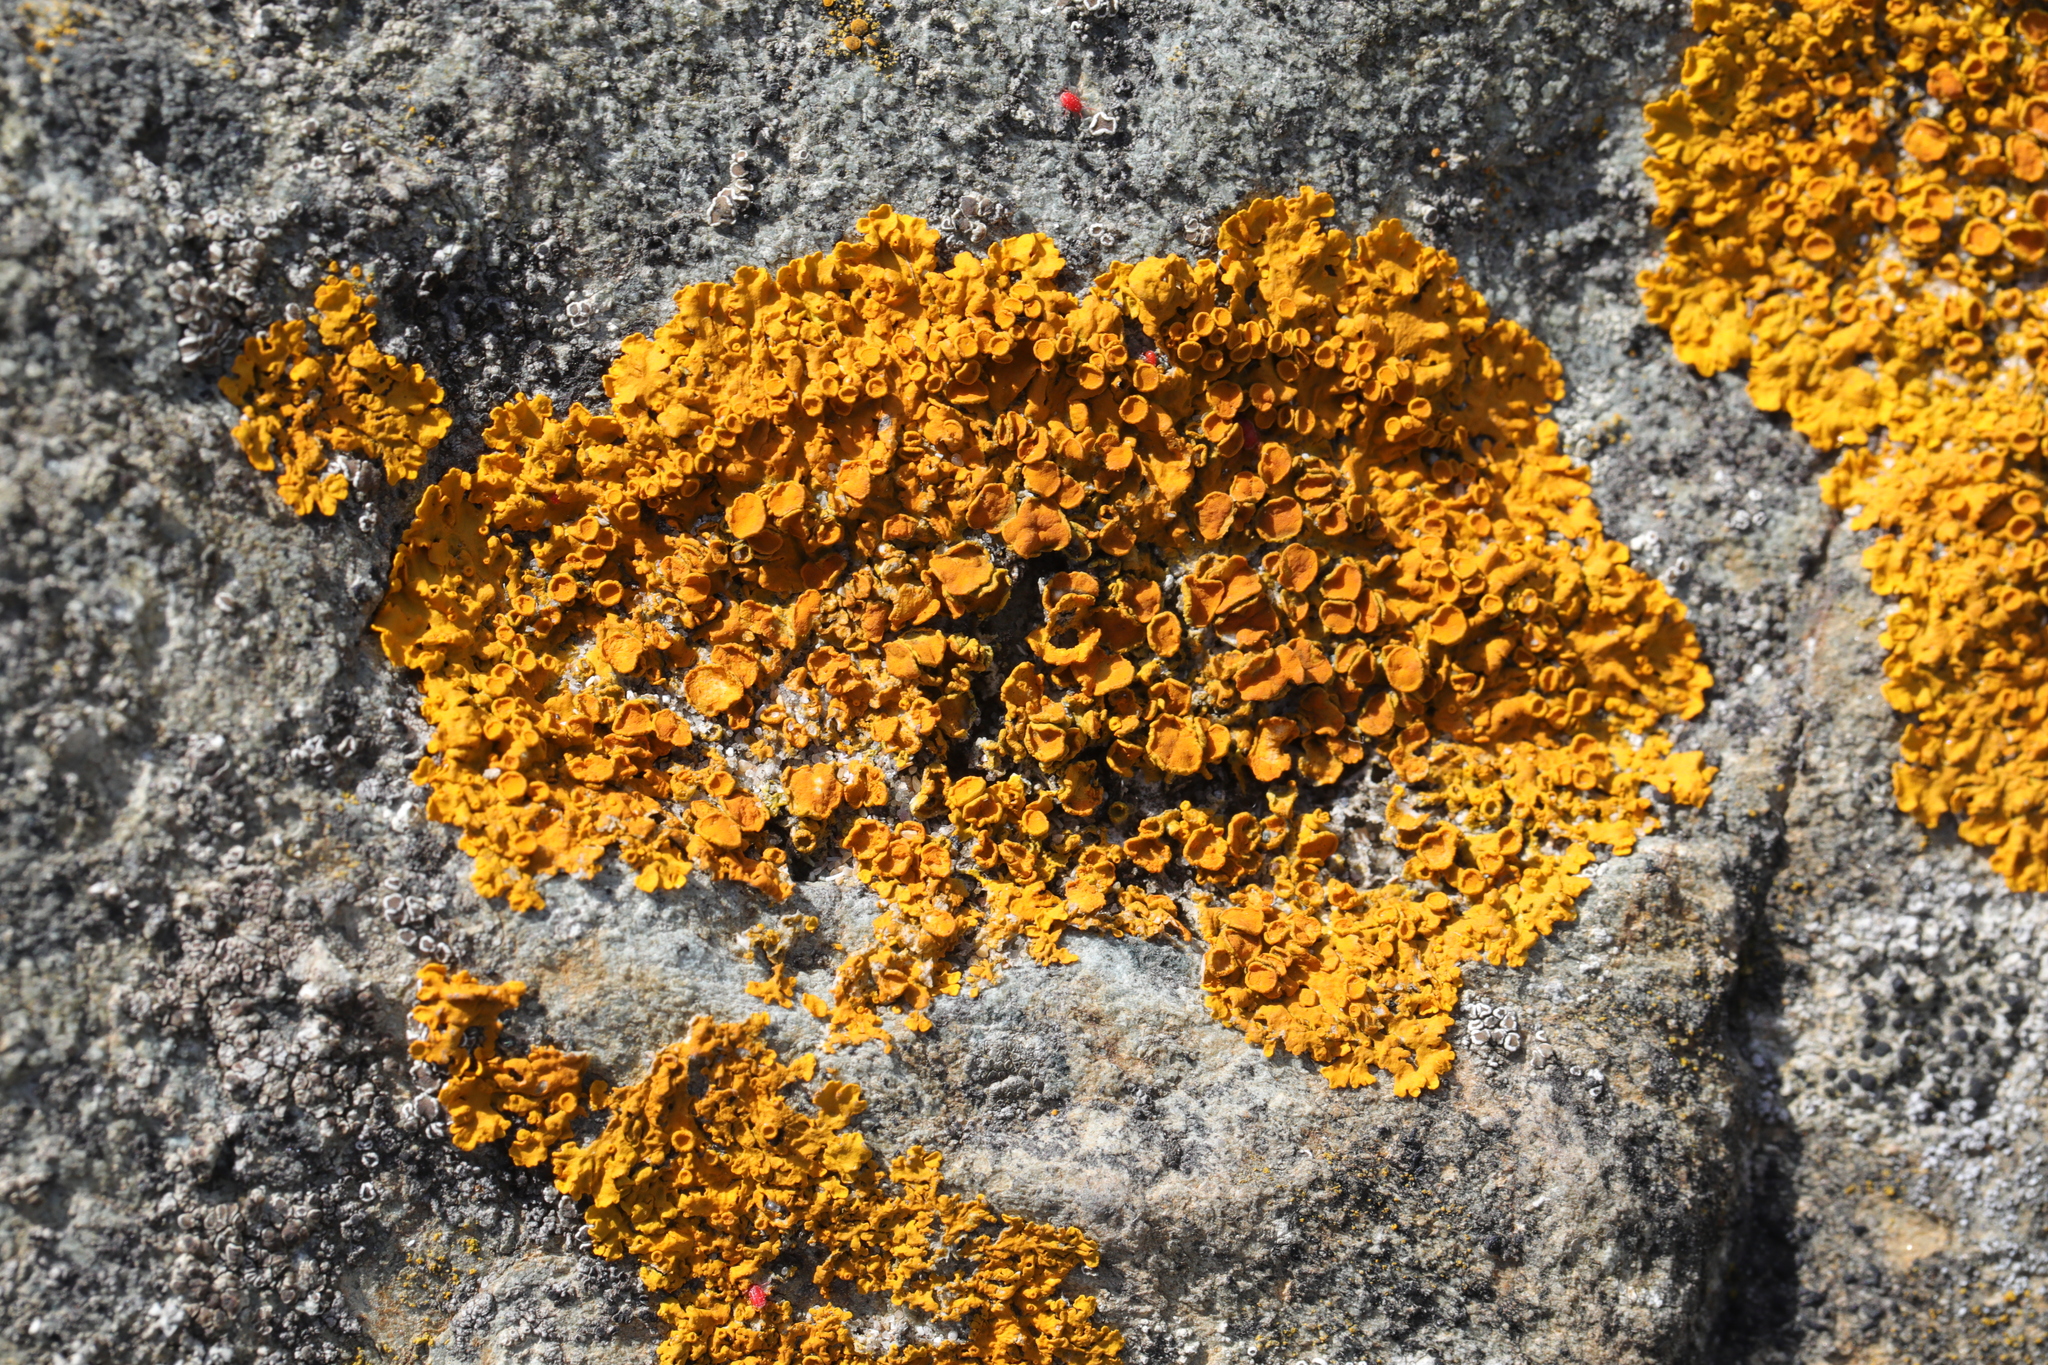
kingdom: Fungi
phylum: Ascomycota
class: Lecanoromycetes
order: Teloschistales
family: Teloschistaceae
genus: Xanthoria
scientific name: Xanthoria parietina
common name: Common orange lichen
